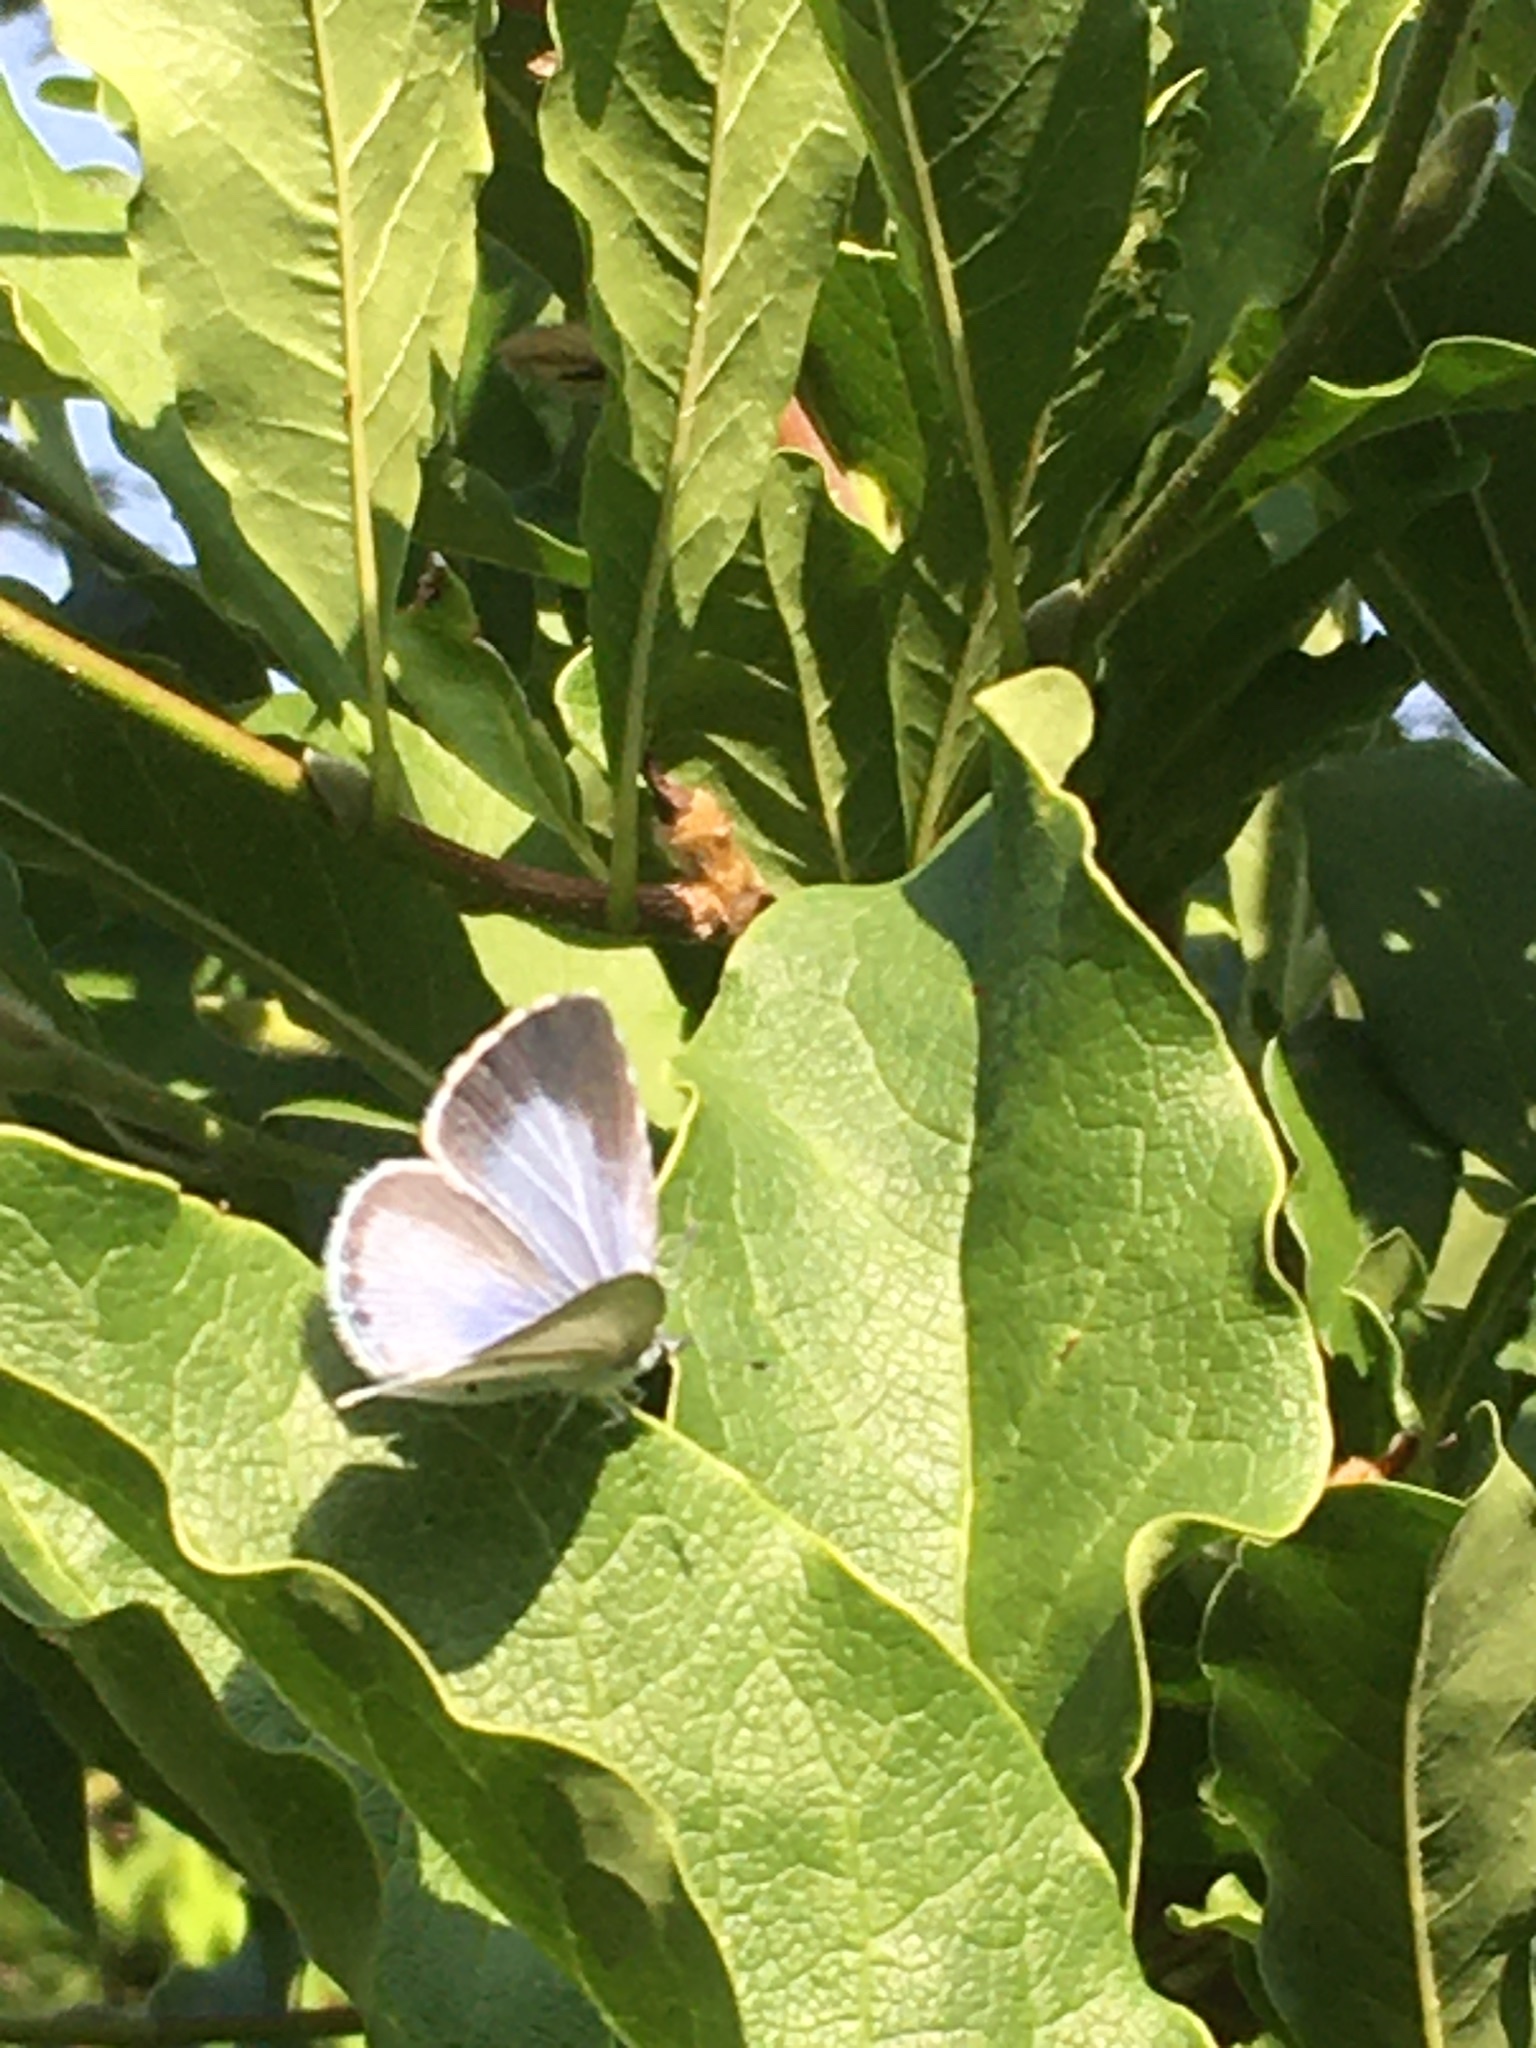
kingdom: Animalia
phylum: Arthropoda
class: Insecta
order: Lepidoptera
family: Lycaenidae
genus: Celastrina
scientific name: Celastrina argiolus
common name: Holly blue
